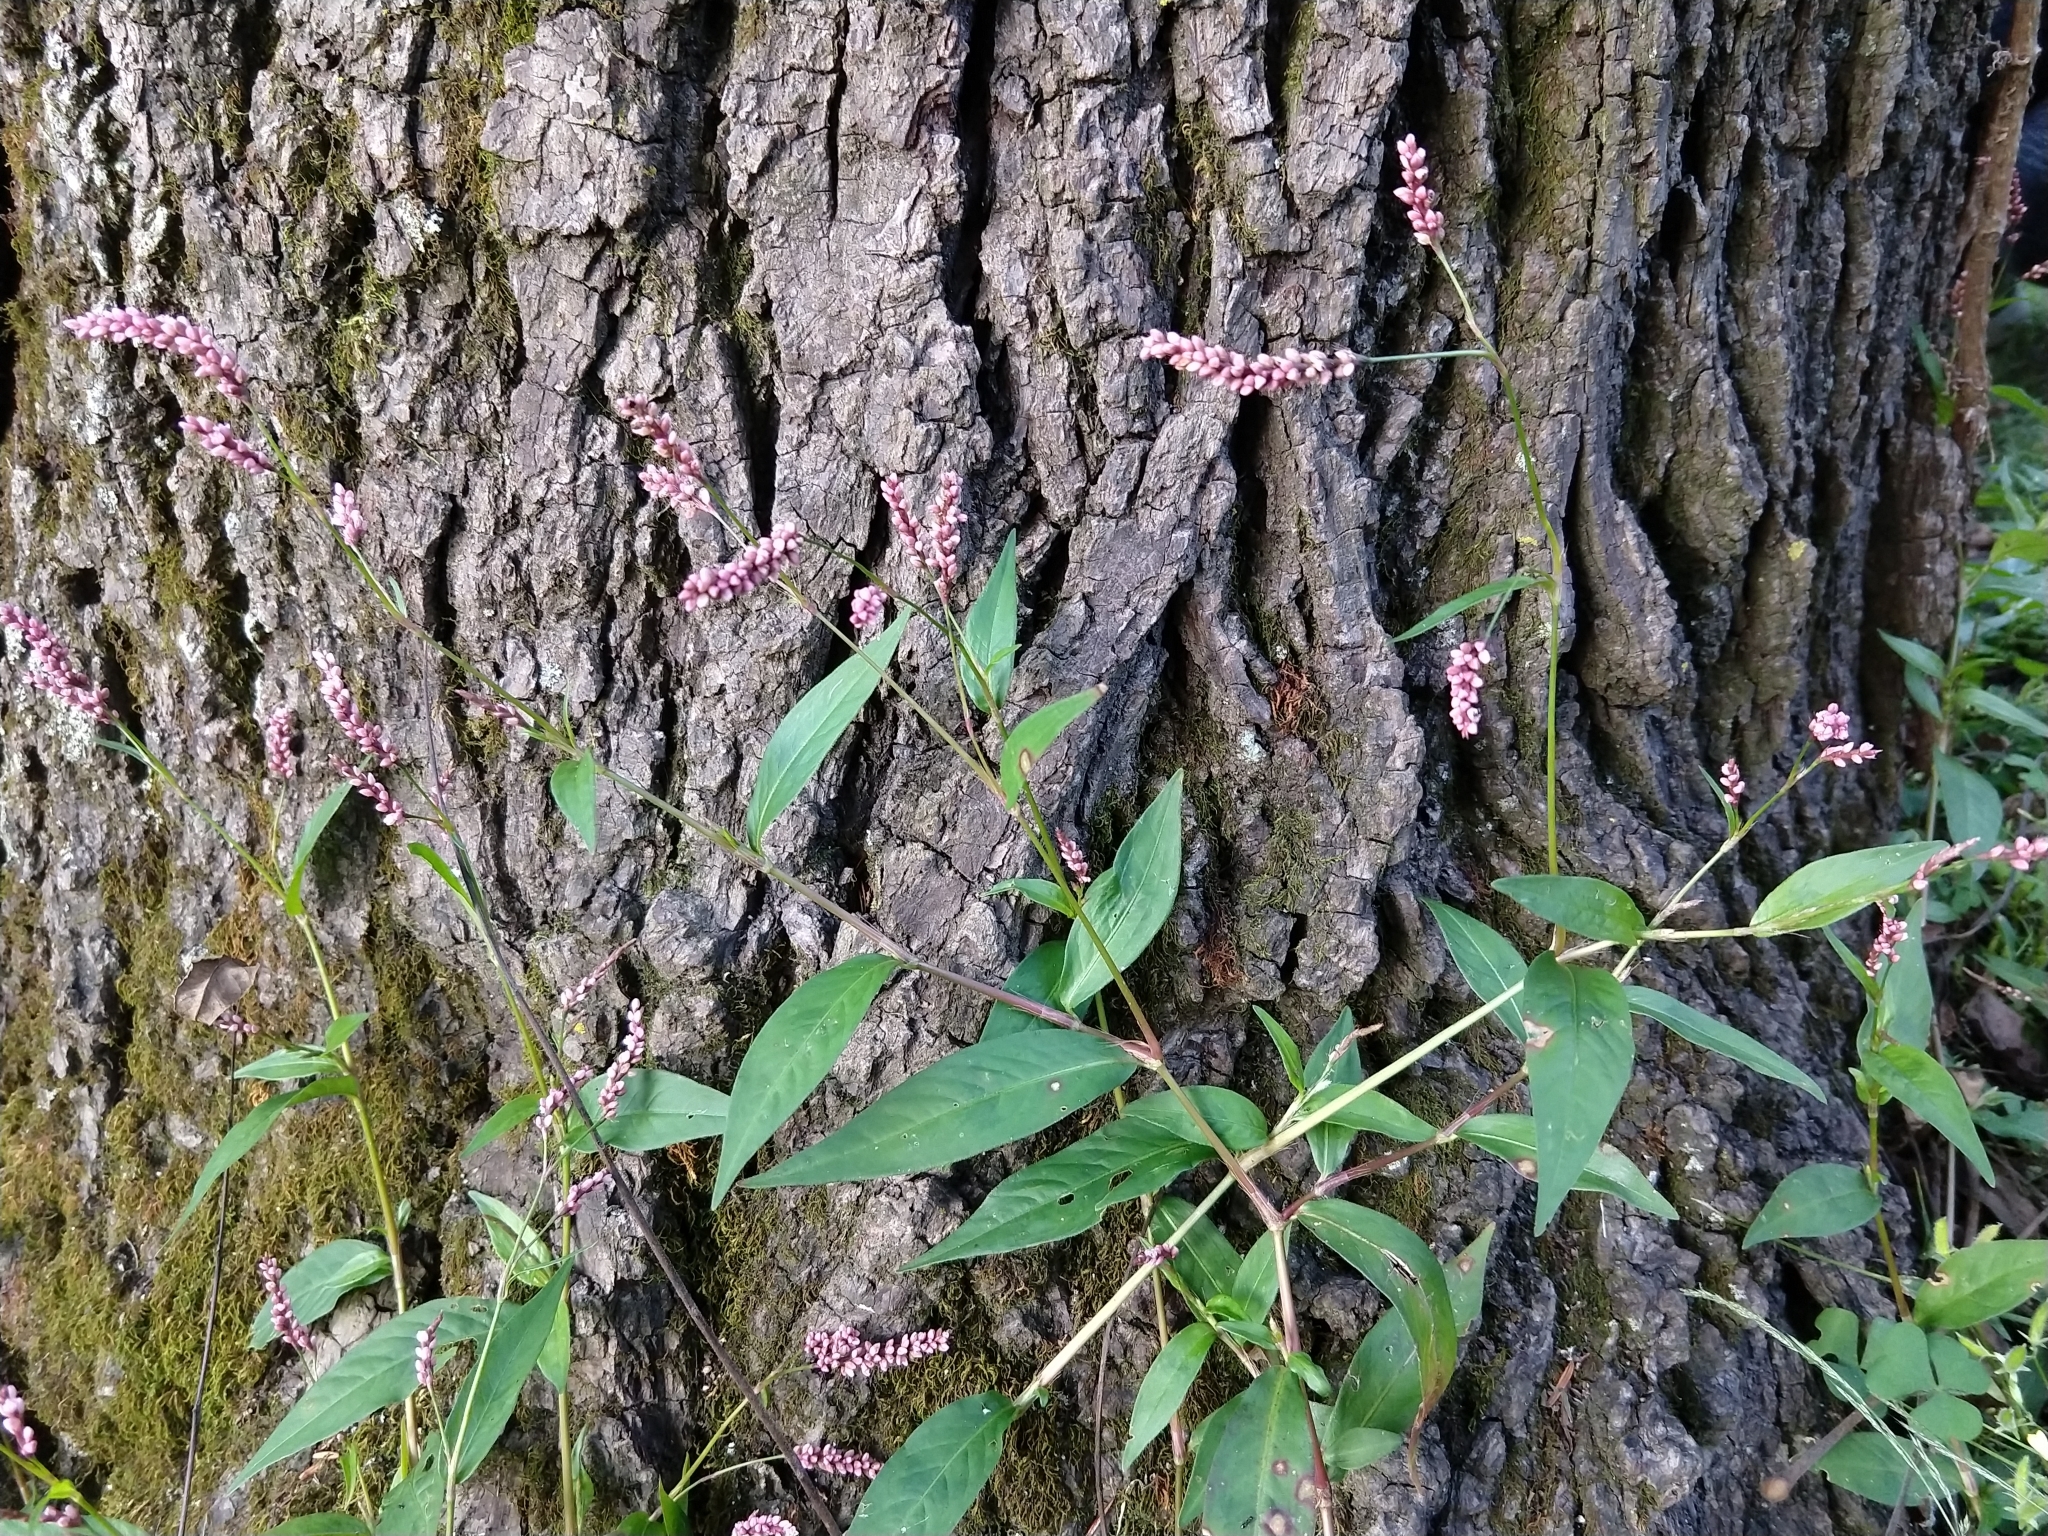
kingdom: Plantae
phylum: Tracheophyta
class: Magnoliopsida
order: Caryophyllales
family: Polygonaceae
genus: Persicaria
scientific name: Persicaria longiseta
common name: Bristly lady's-thumb
